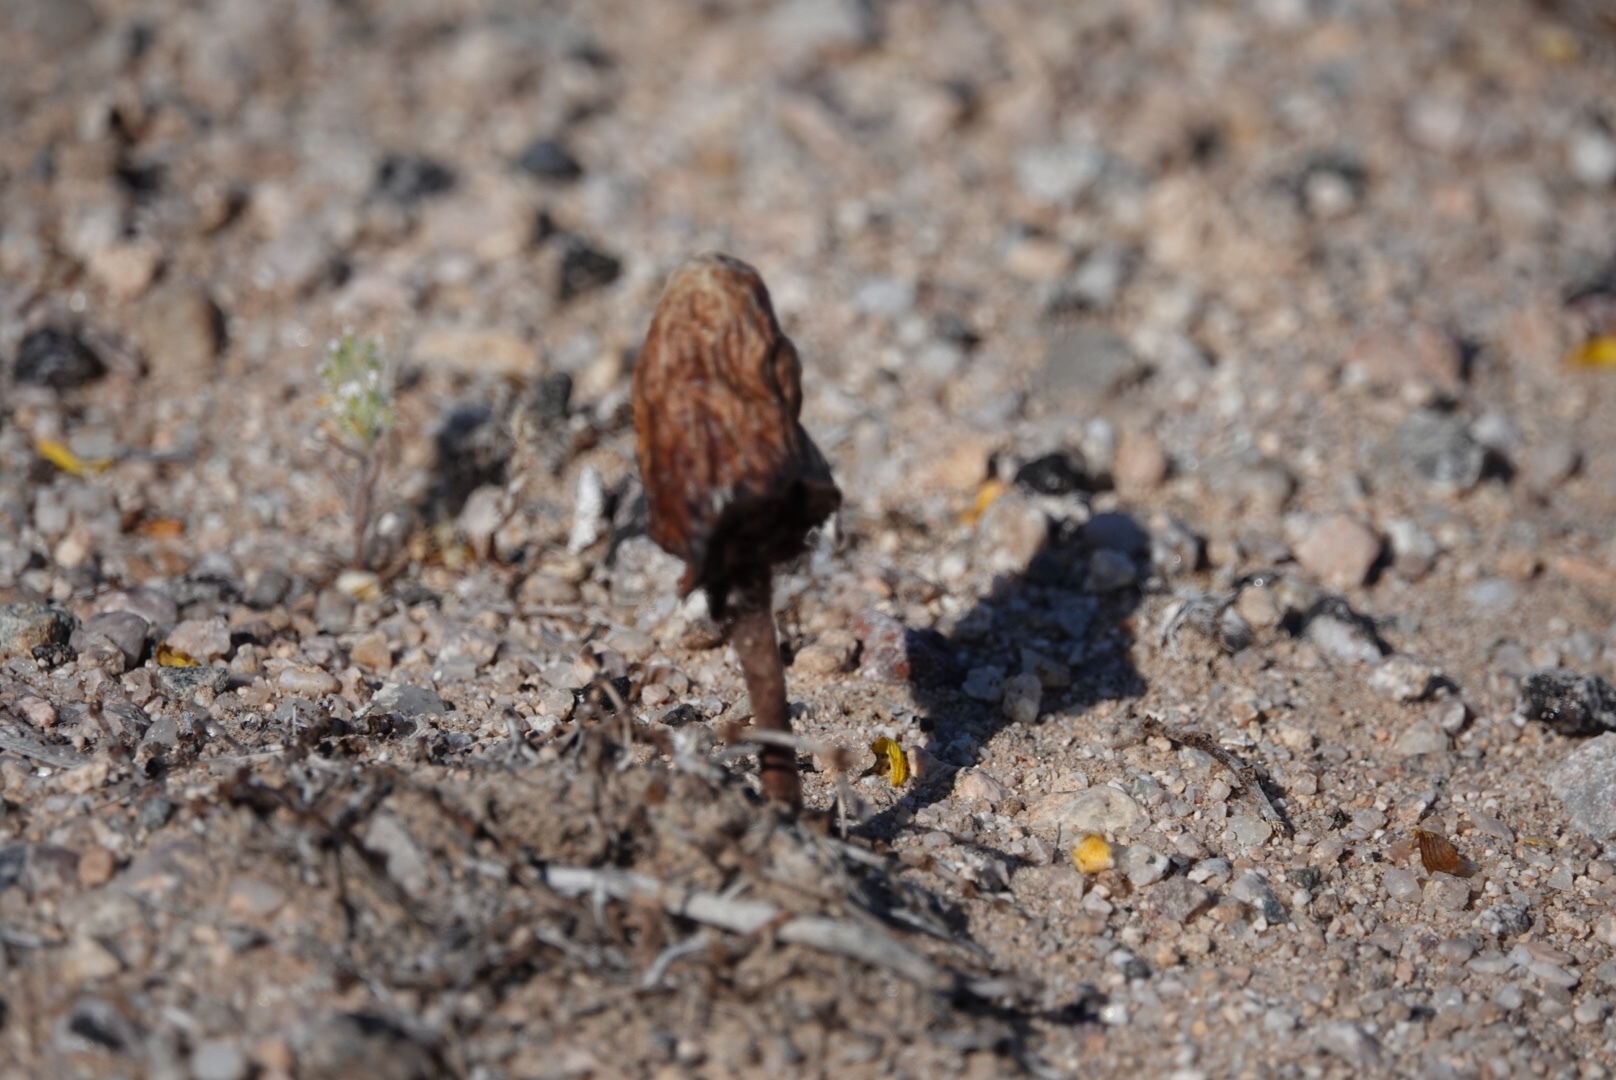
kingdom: Fungi
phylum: Basidiomycota
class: Agaricomycetes
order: Agaricales
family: Agaricaceae
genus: Podaxis
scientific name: Podaxis pistillaris
